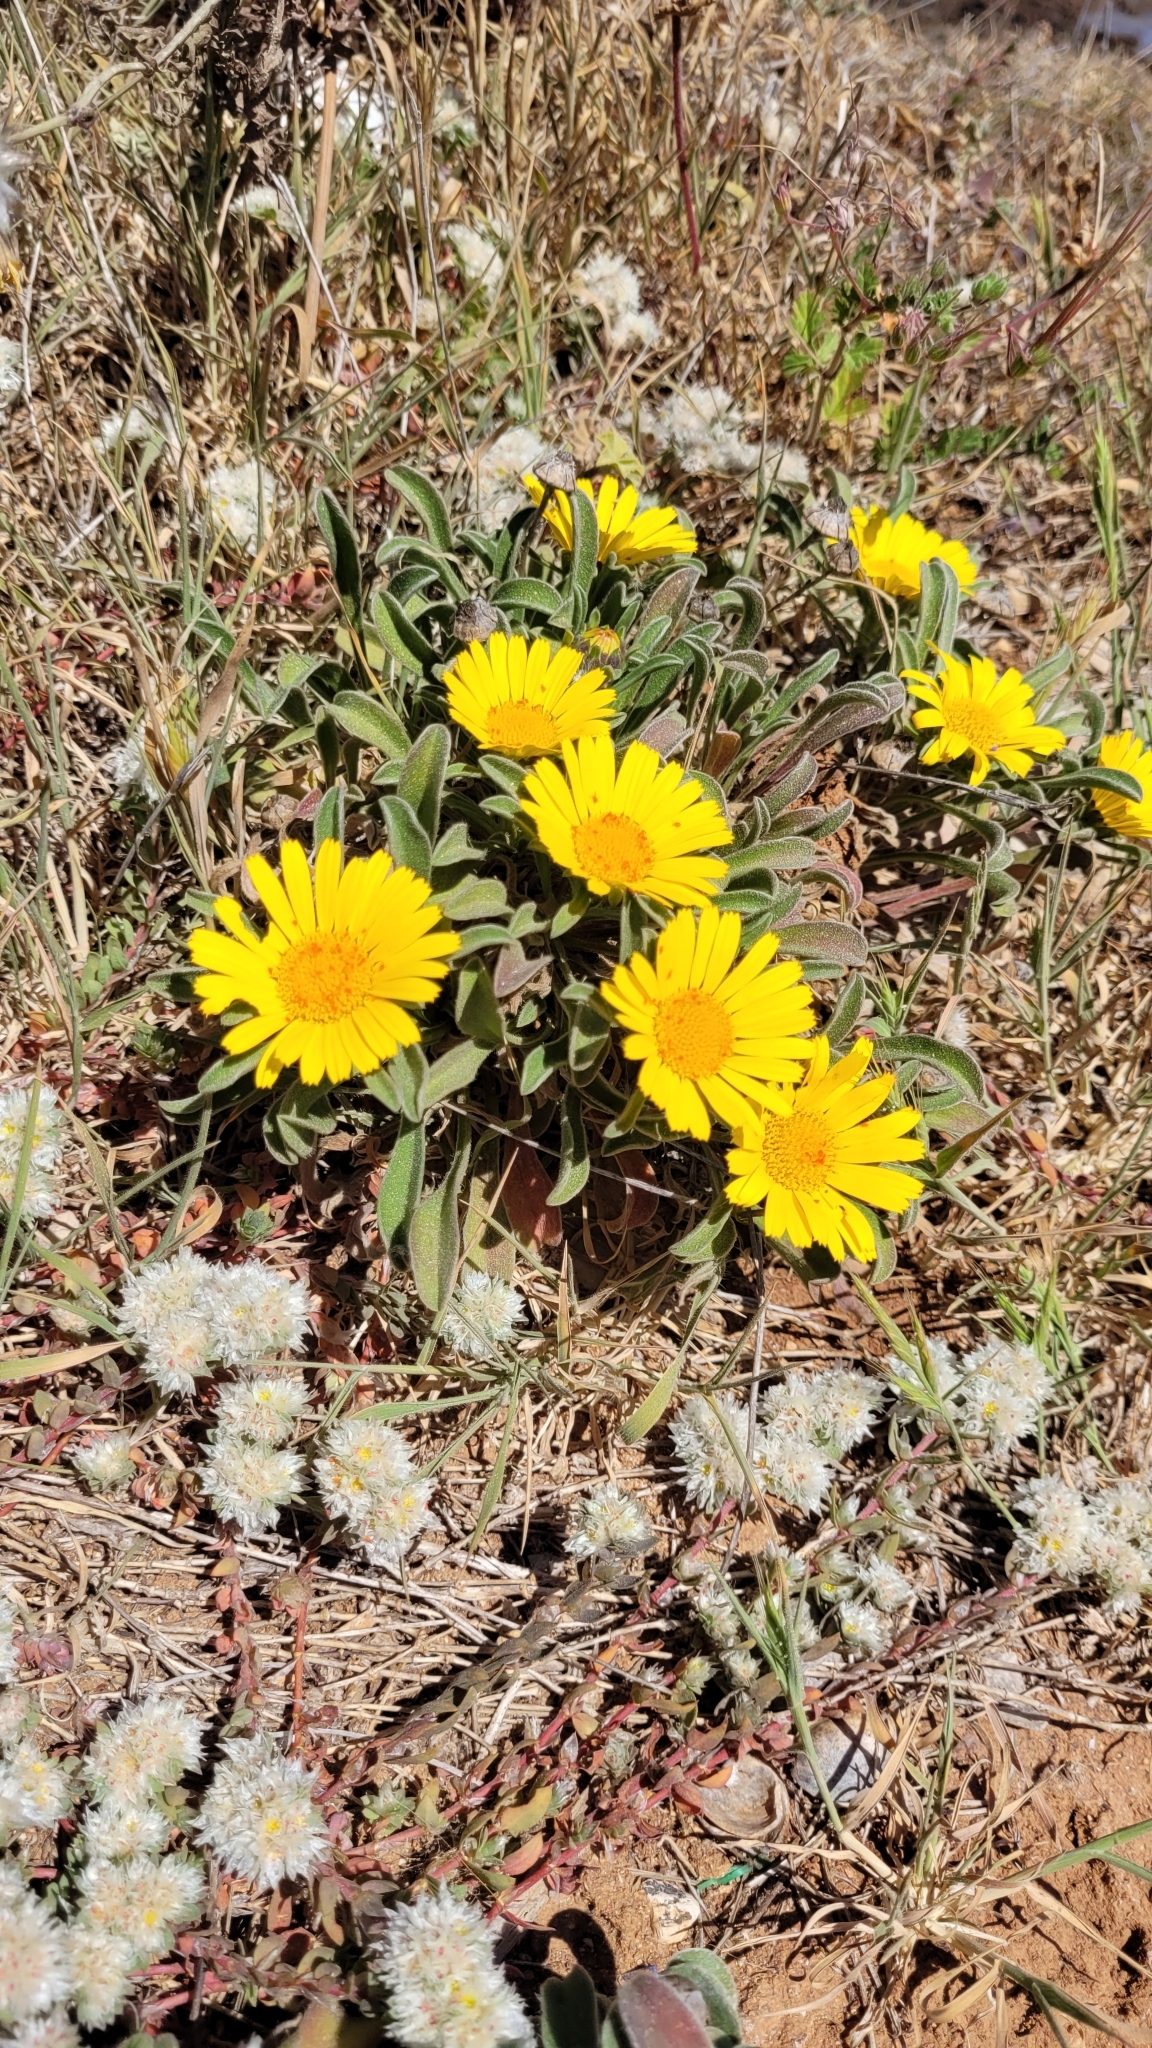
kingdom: Plantae
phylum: Tracheophyta
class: Magnoliopsida
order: Asterales
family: Asteraceae
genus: Pallenis
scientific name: Pallenis maritima
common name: Golden coin daisy
